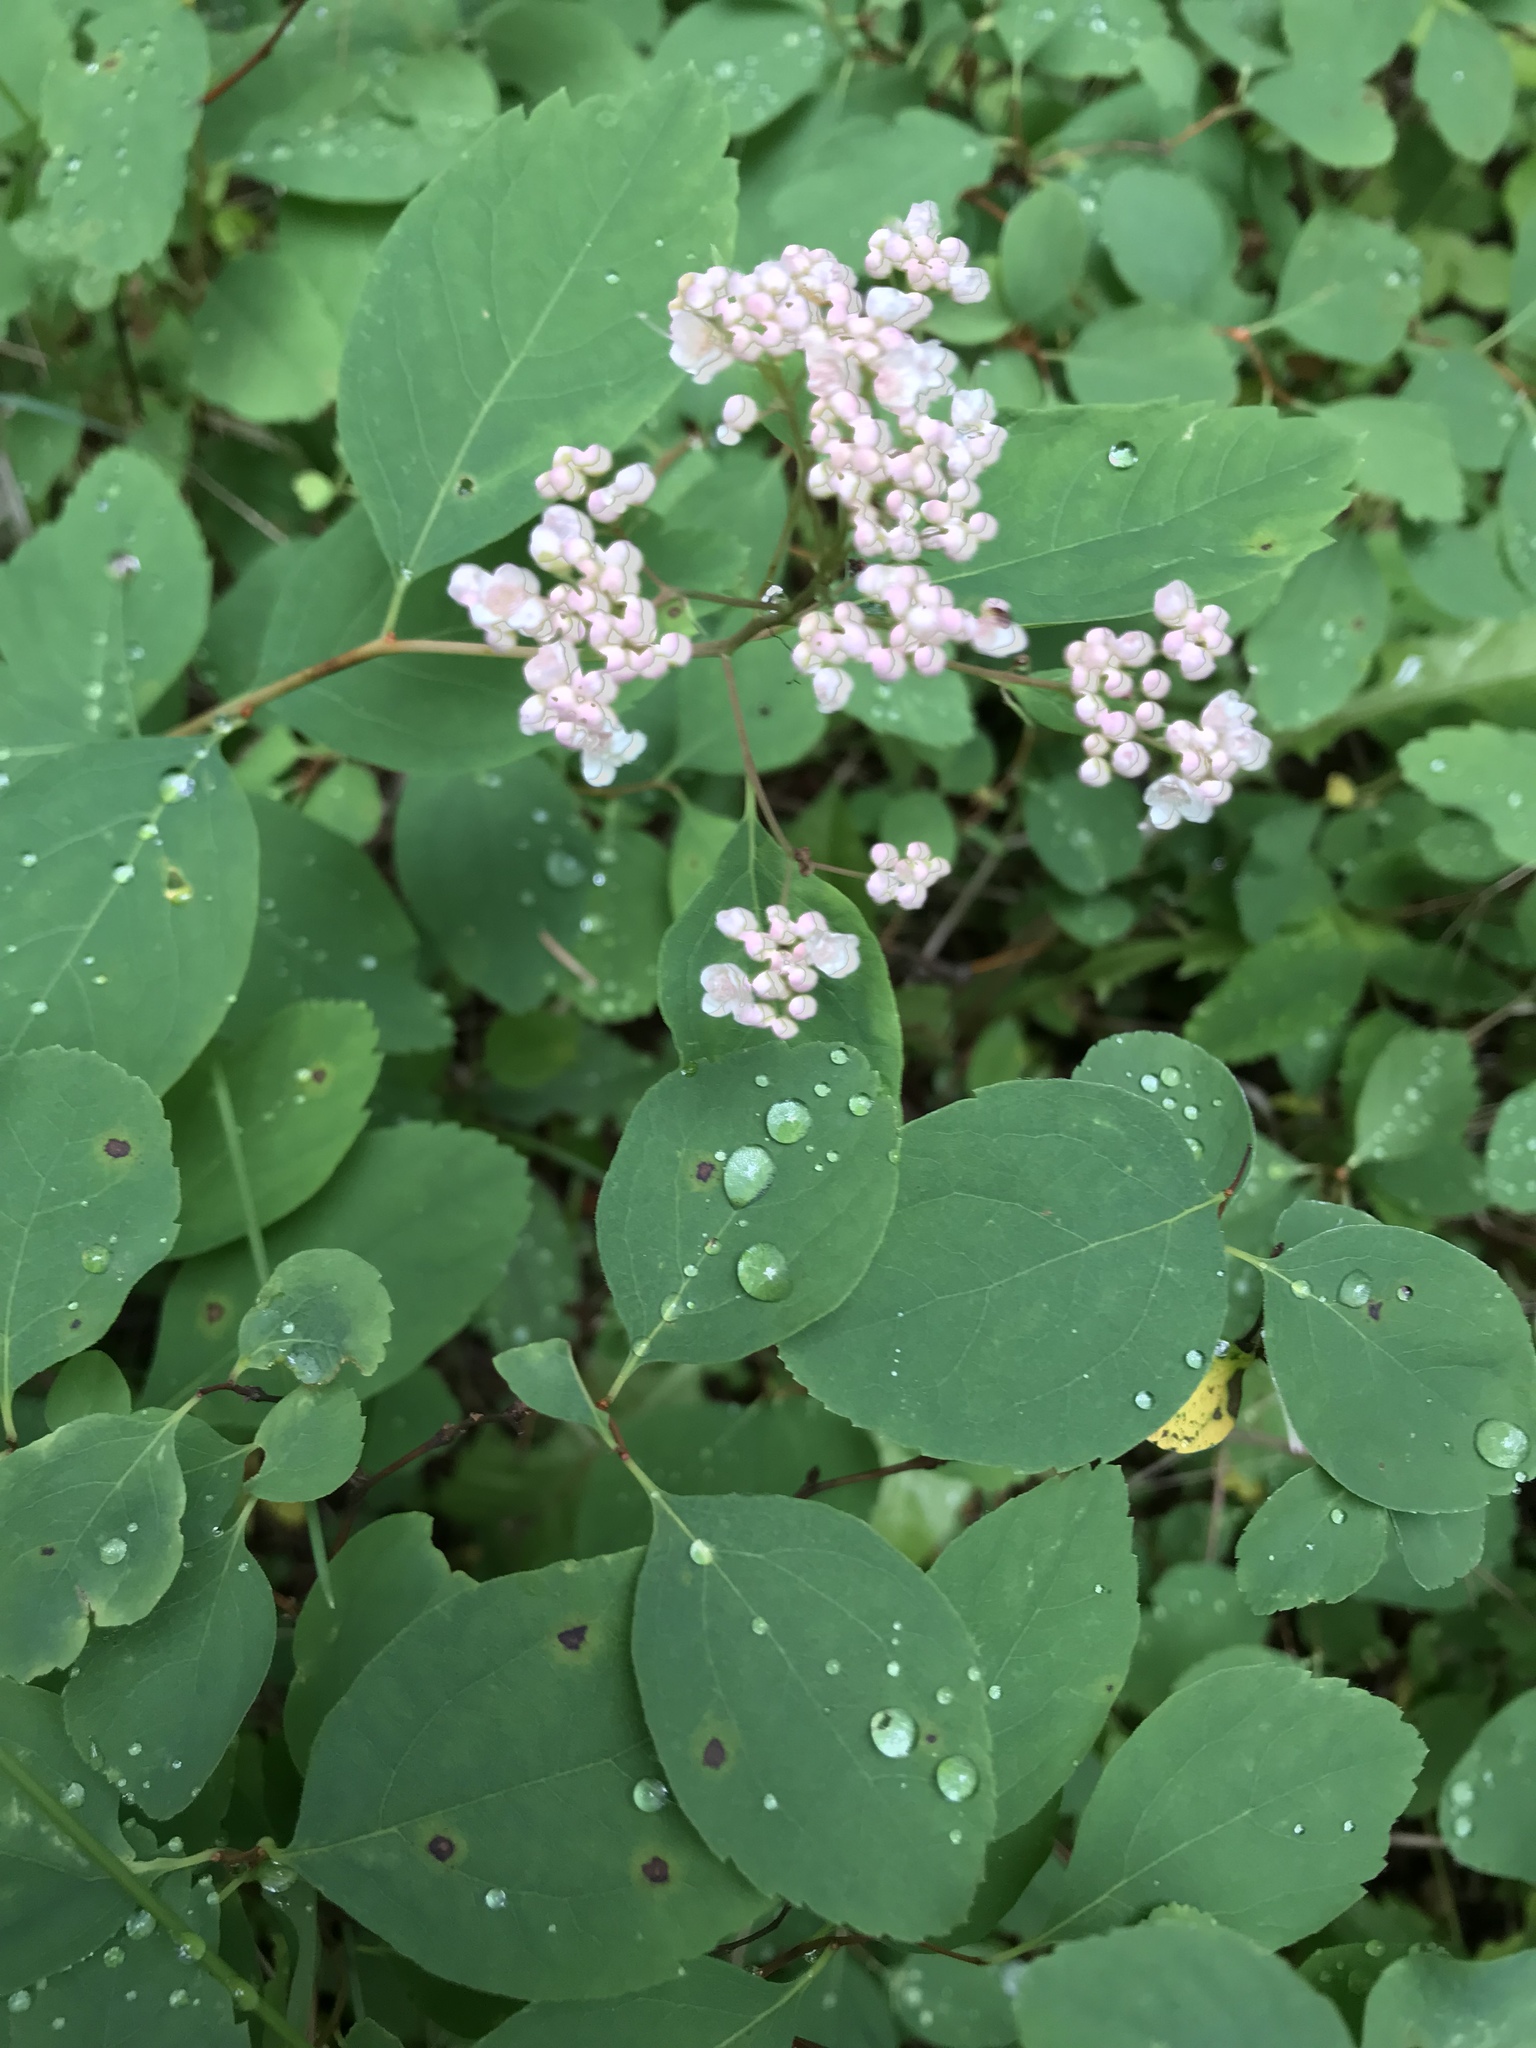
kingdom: Plantae
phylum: Tracheophyta
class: Magnoliopsida
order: Rosales
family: Rosaceae
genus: Spiraea
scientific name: Spiraea lucida
